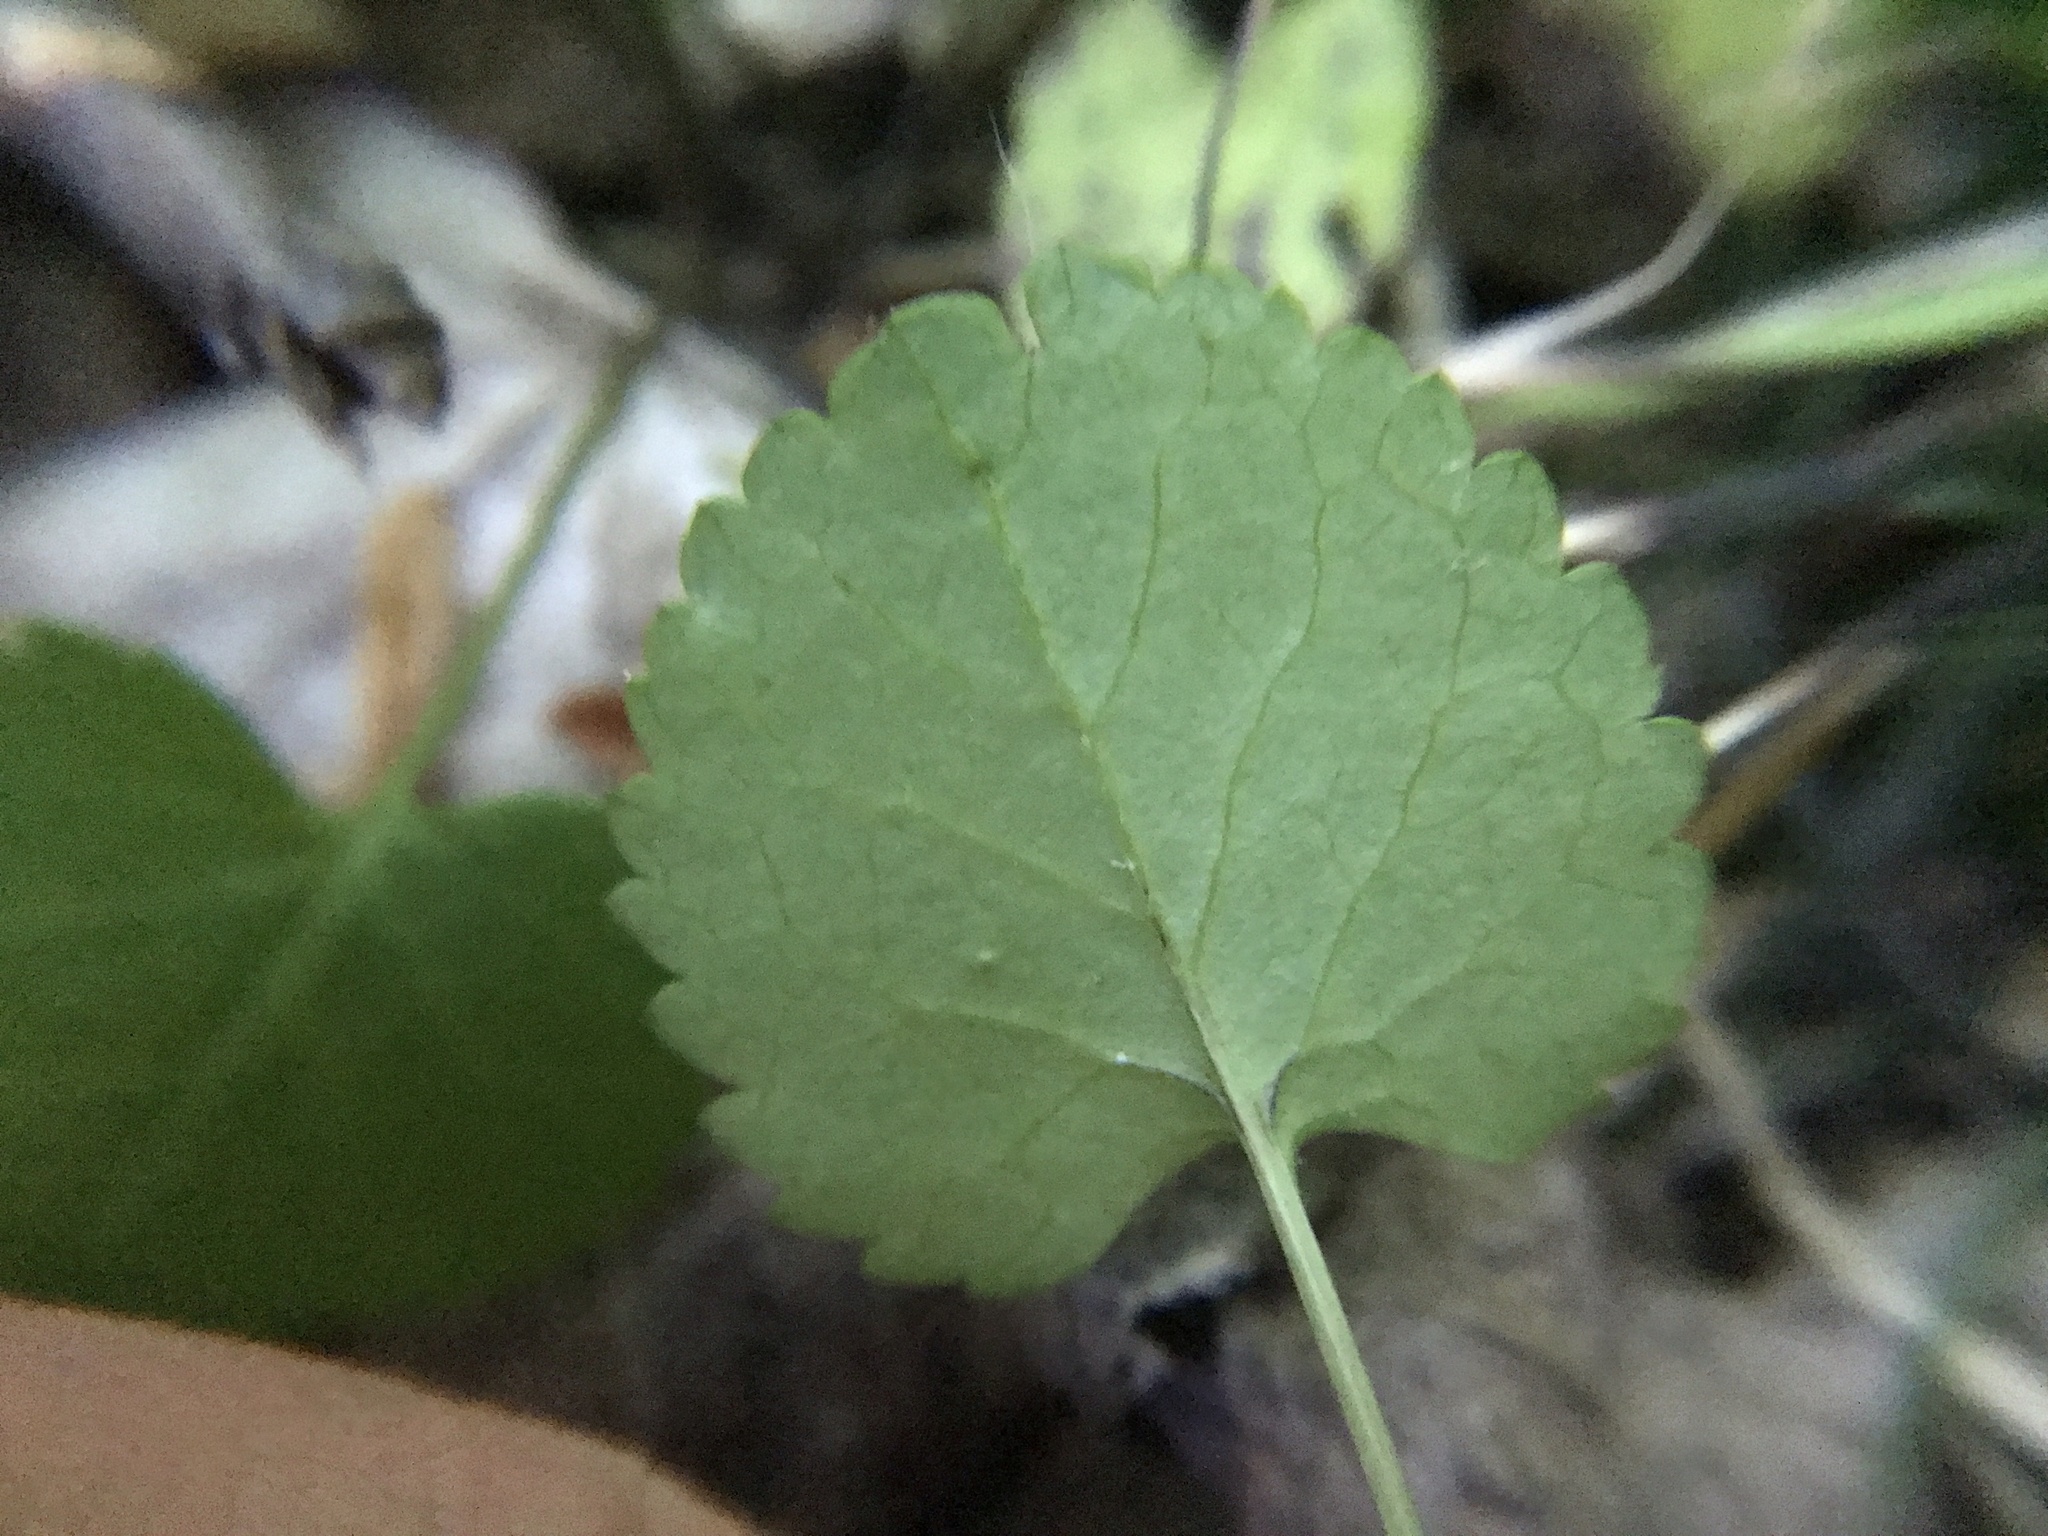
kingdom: Plantae
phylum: Tracheophyta
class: Magnoliopsida
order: Asterales
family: Asteraceae
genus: Packera
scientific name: Packera aurea
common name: Golden groundsel
